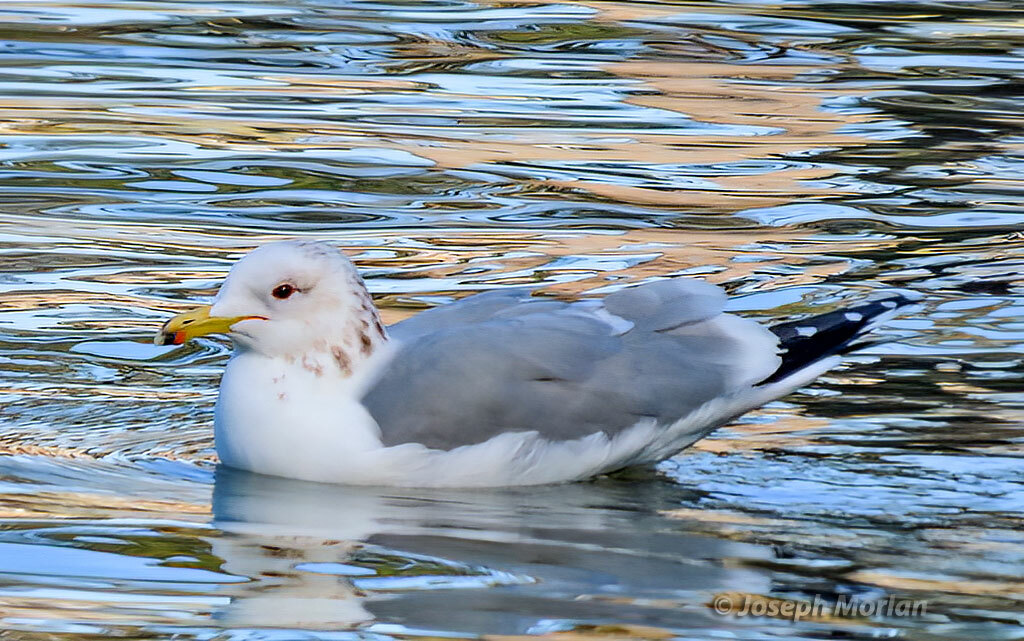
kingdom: Animalia
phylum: Chordata
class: Aves
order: Charadriiformes
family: Laridae
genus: Larus
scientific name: Larus californicus
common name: California gull
